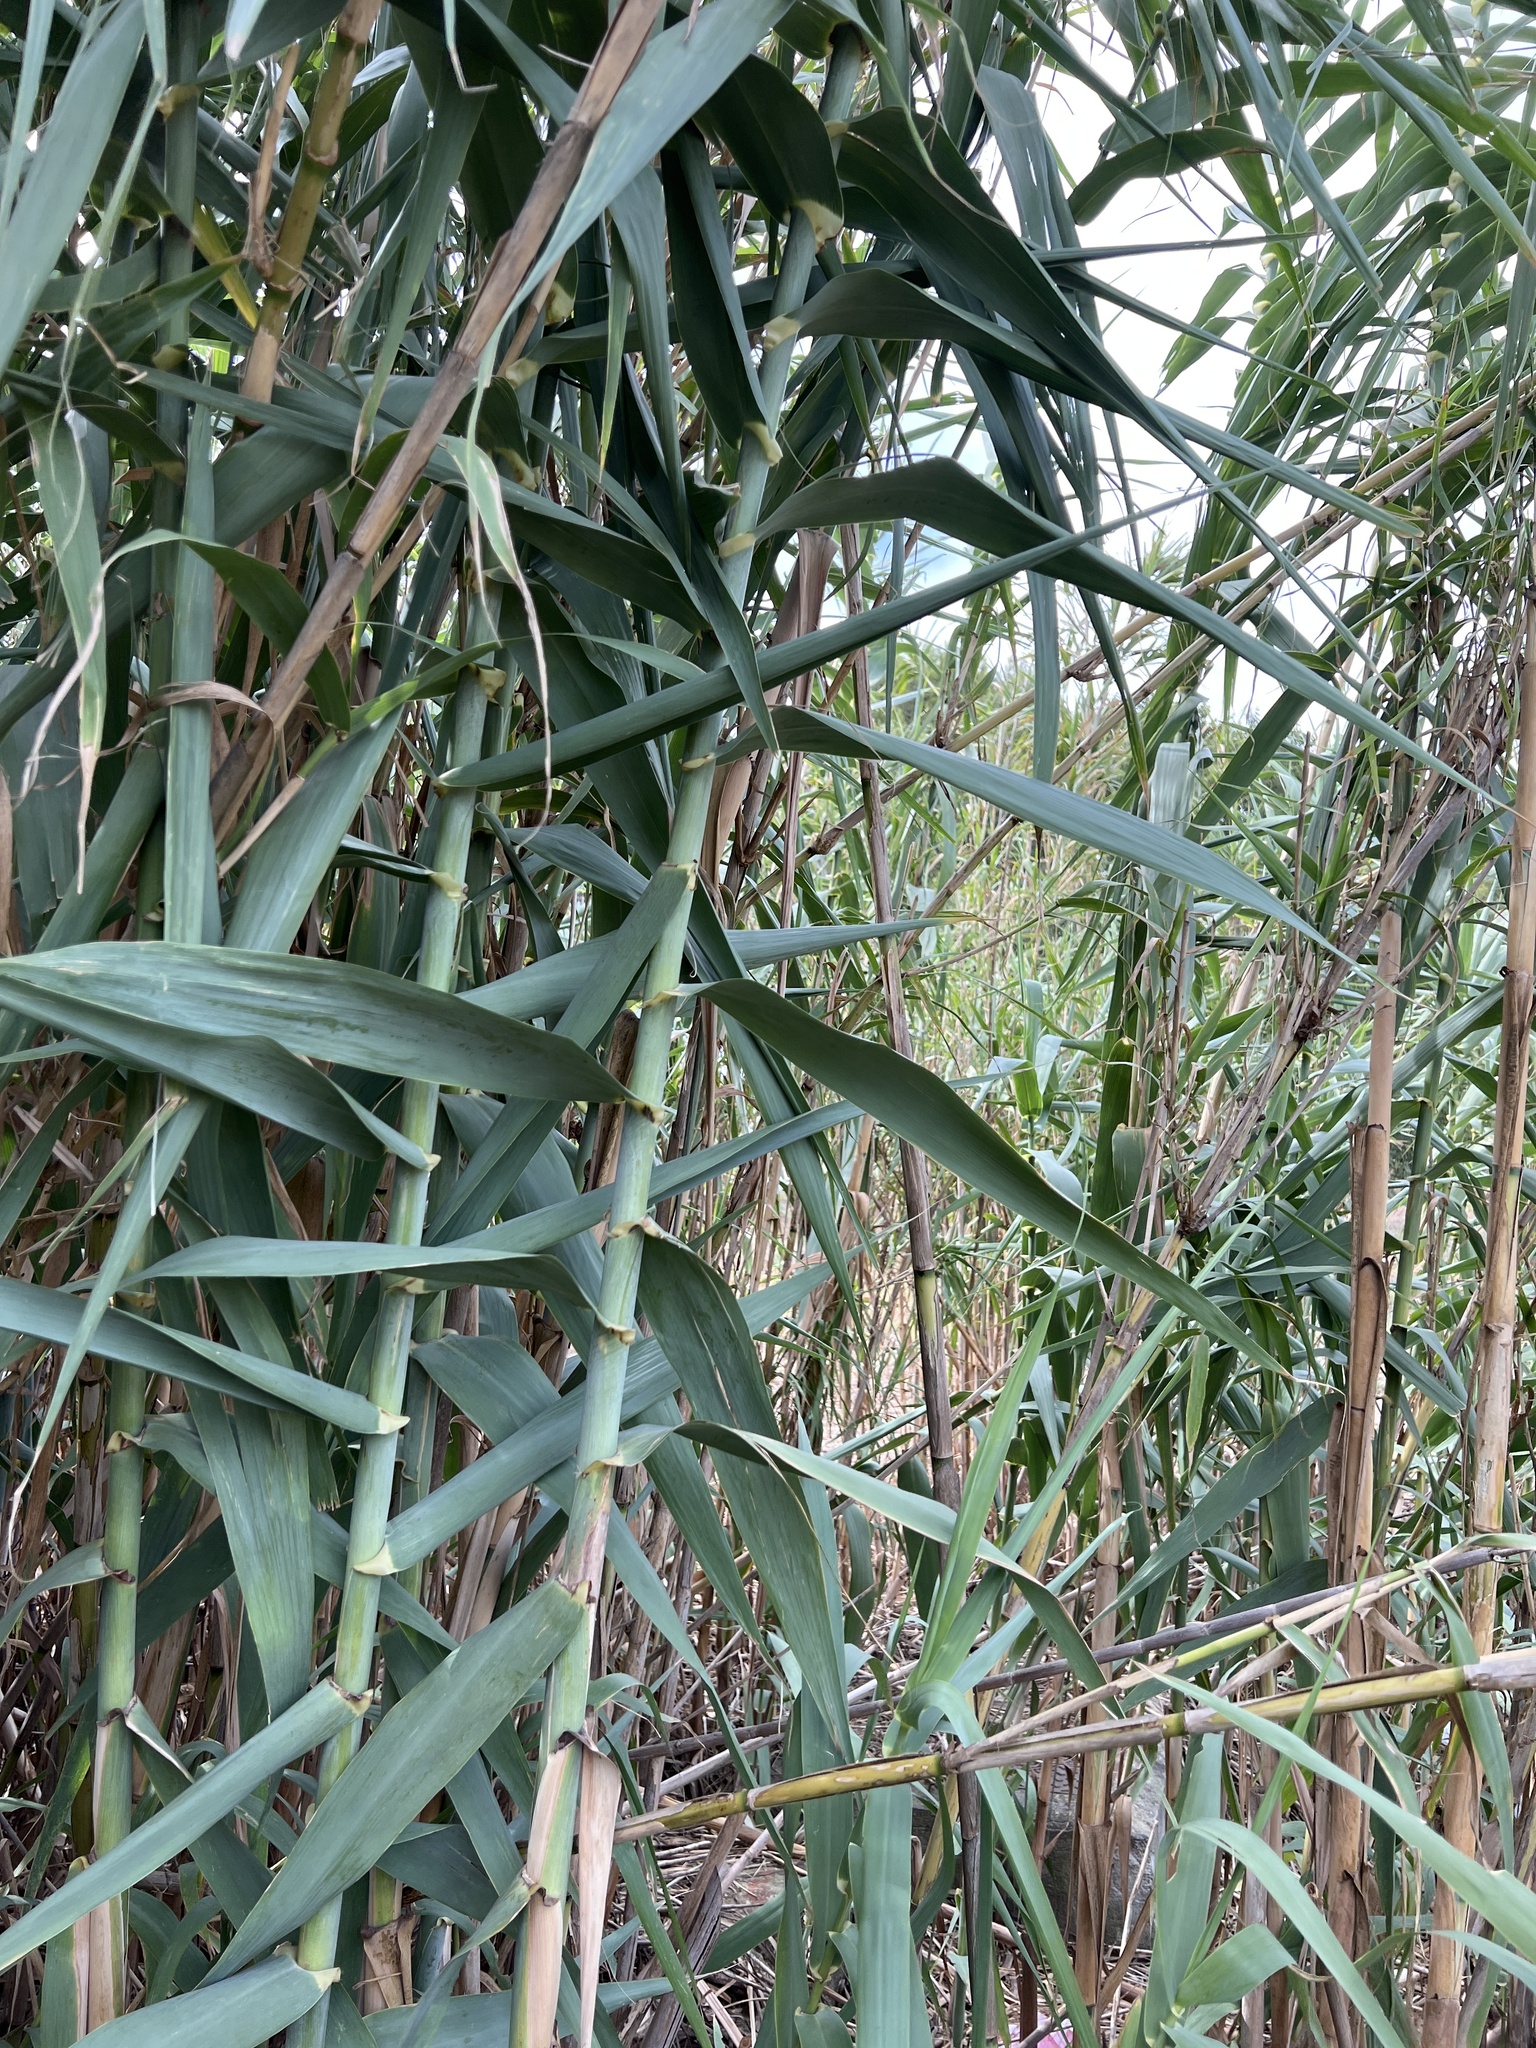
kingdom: Plantae
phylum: Tracheophyta
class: Liliopsida
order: Poales
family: Poaceae
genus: Arundo
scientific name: Arundo donax
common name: Giant reed
